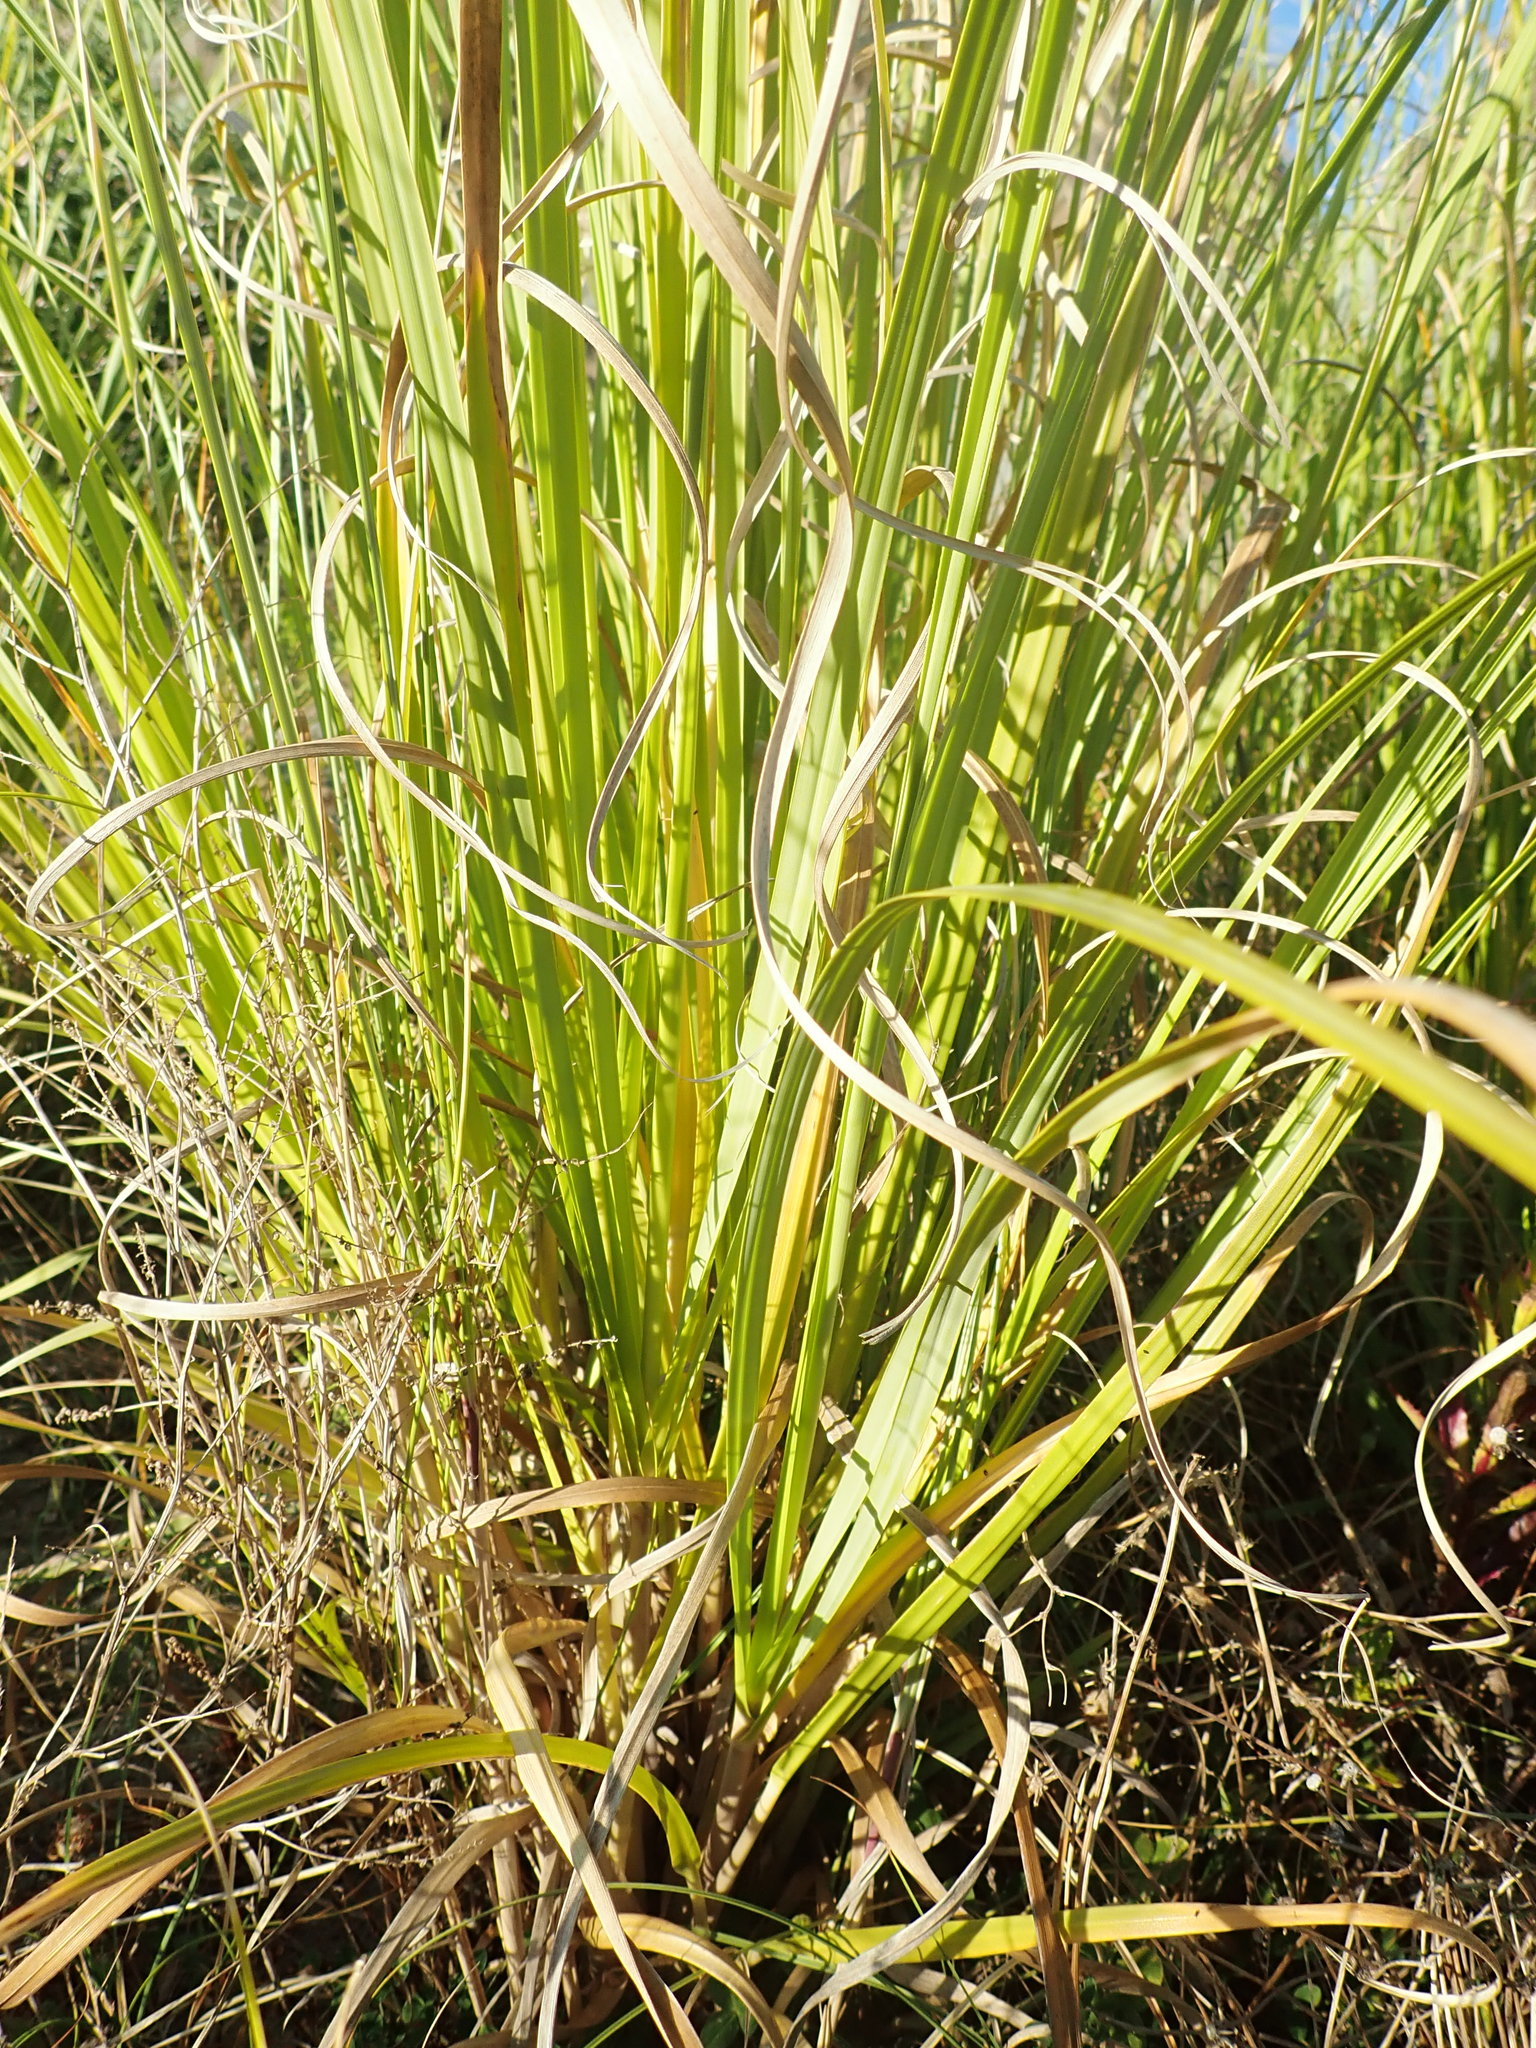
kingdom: Plantae
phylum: Tracheophyta
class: Liliopsida
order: Poales
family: Poaceae
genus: Cortaderia
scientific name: Cortaderia selloana
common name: Uruguayan pampas grass
